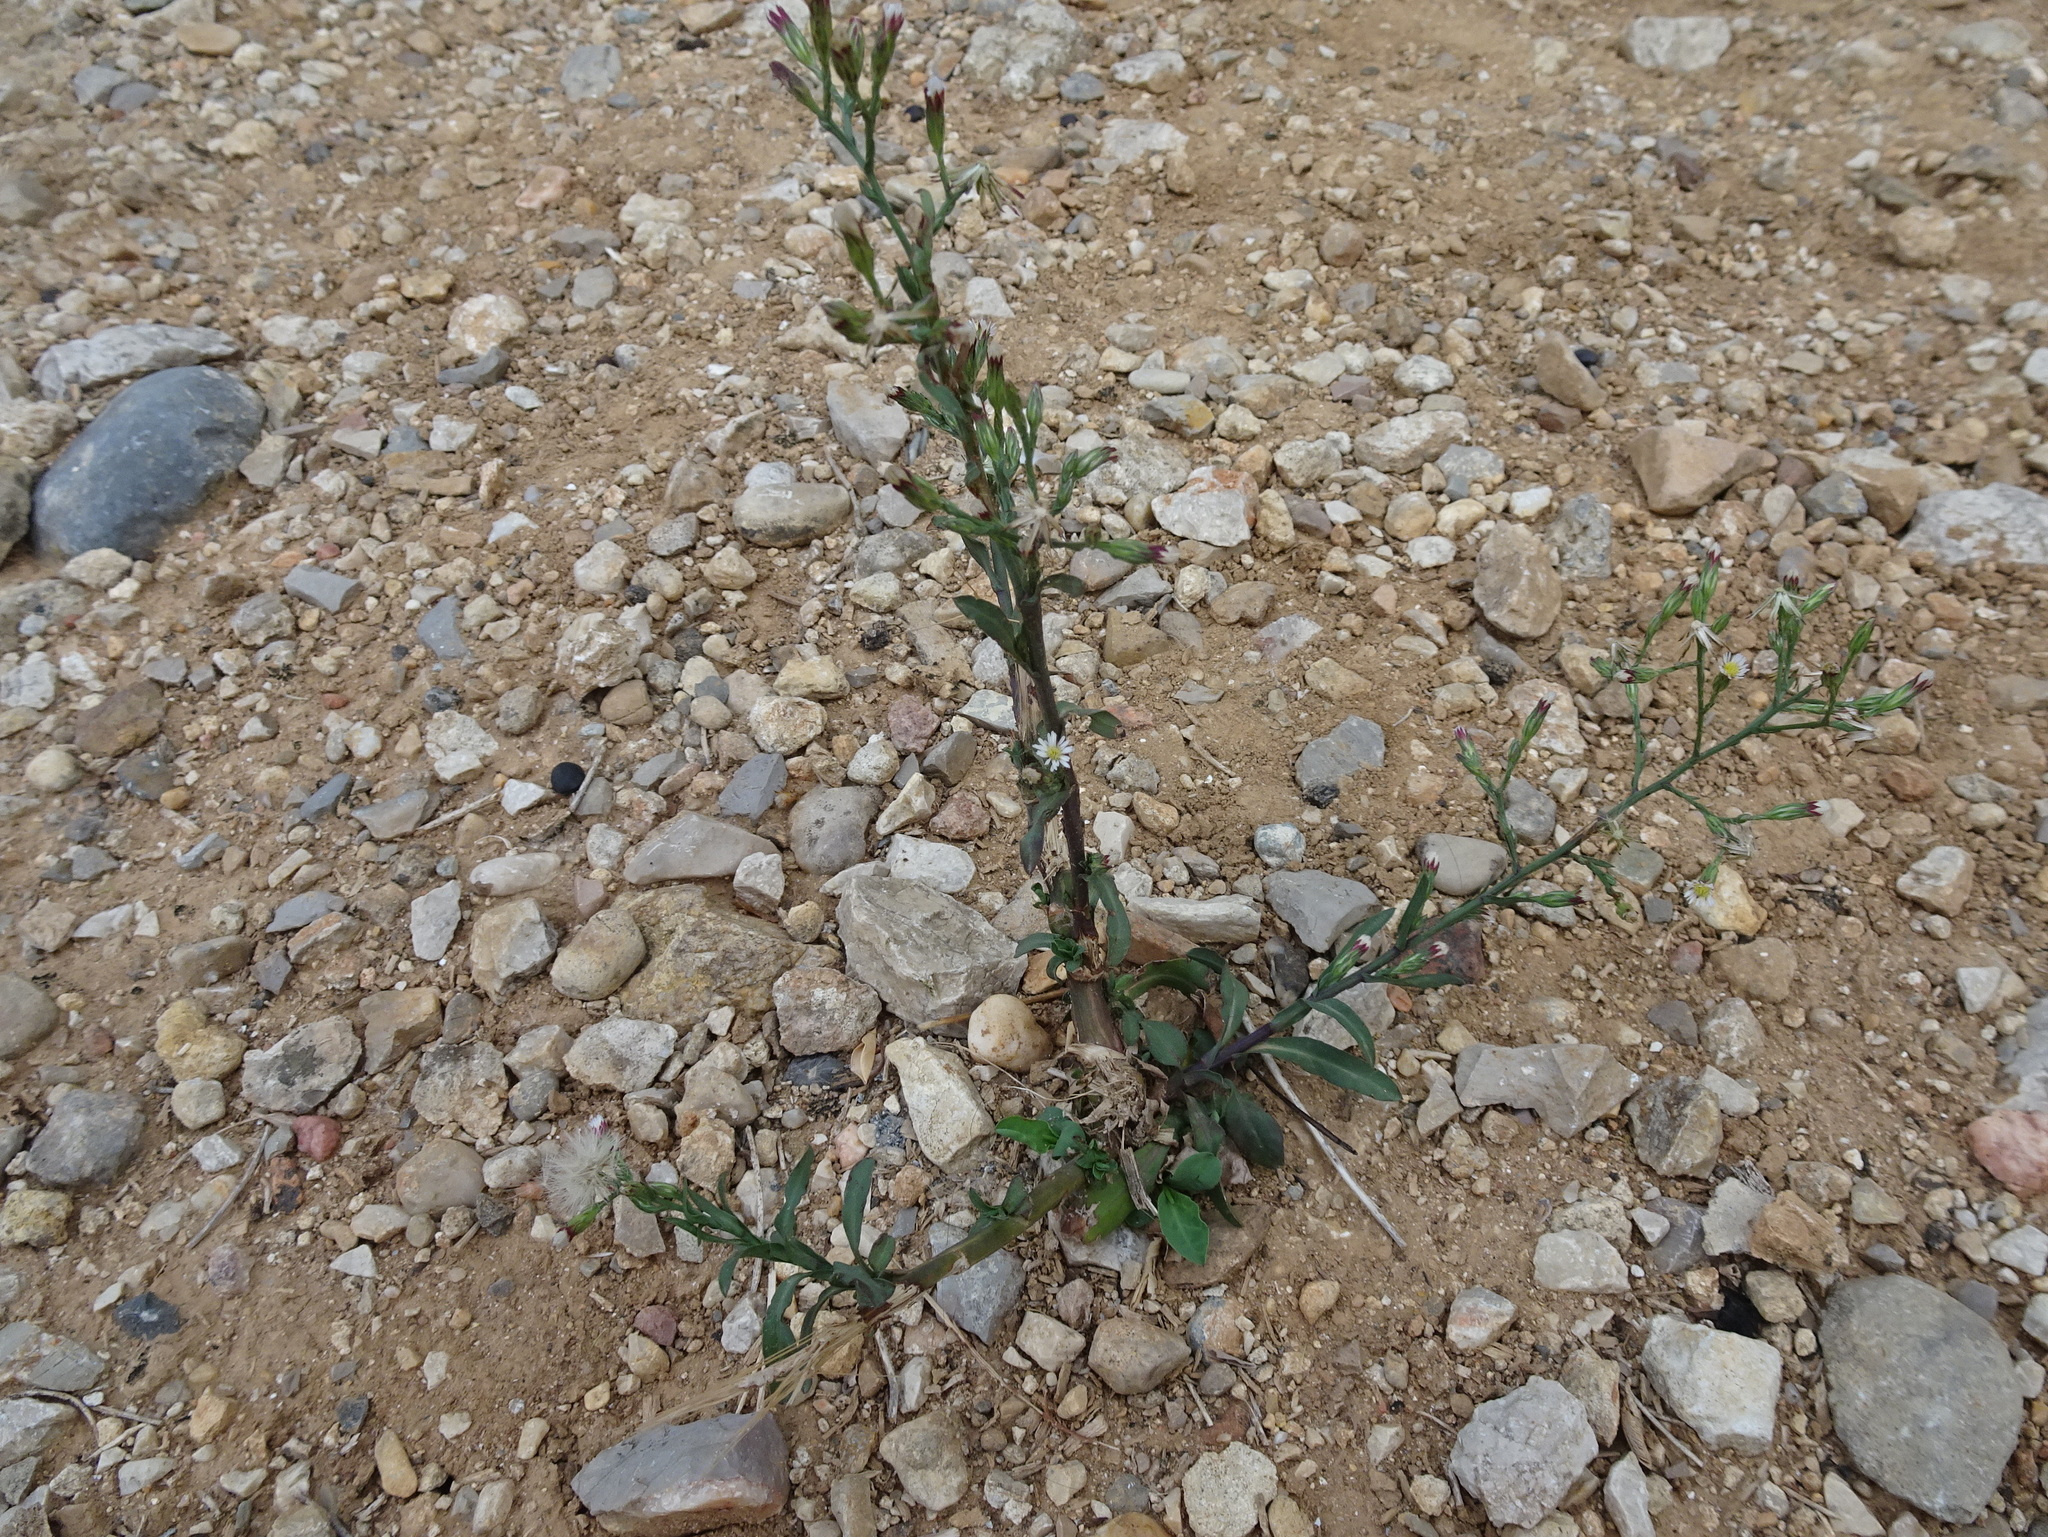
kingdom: Plantae
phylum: Tracheophyta
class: Magnoliopsida
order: Asterales
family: Asteraceae
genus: Symphyotrichum
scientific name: Symphyotrichum squamatum
